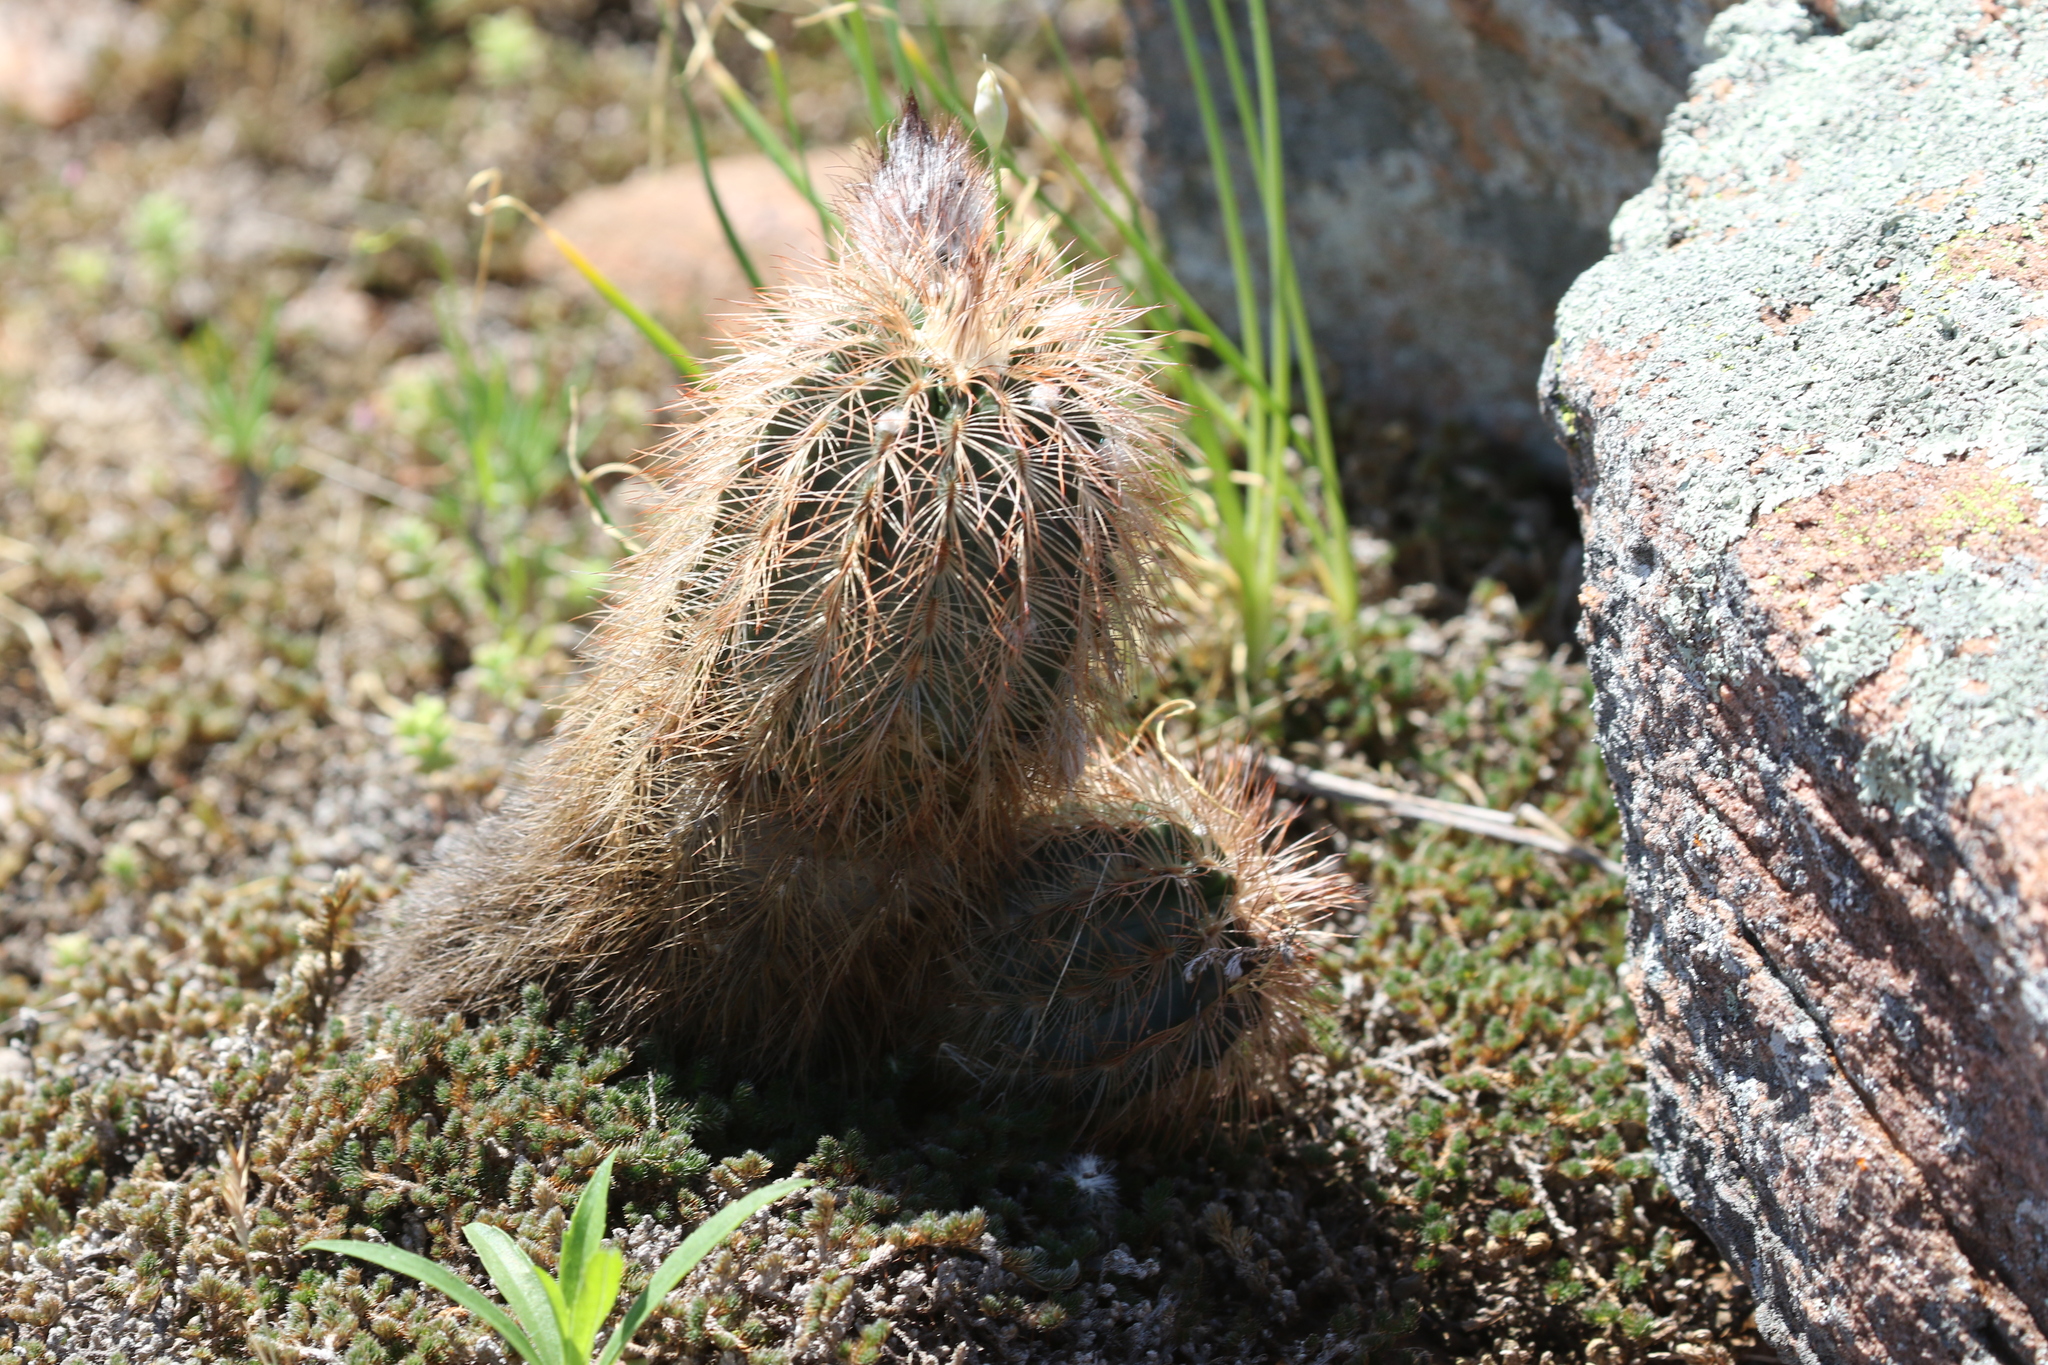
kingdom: Plantae
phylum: Tracheophyta
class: Magnoliopsida
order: Caryophyllales
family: Cactaceae
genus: Echinocereus
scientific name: Echinocereus reichenbachii
